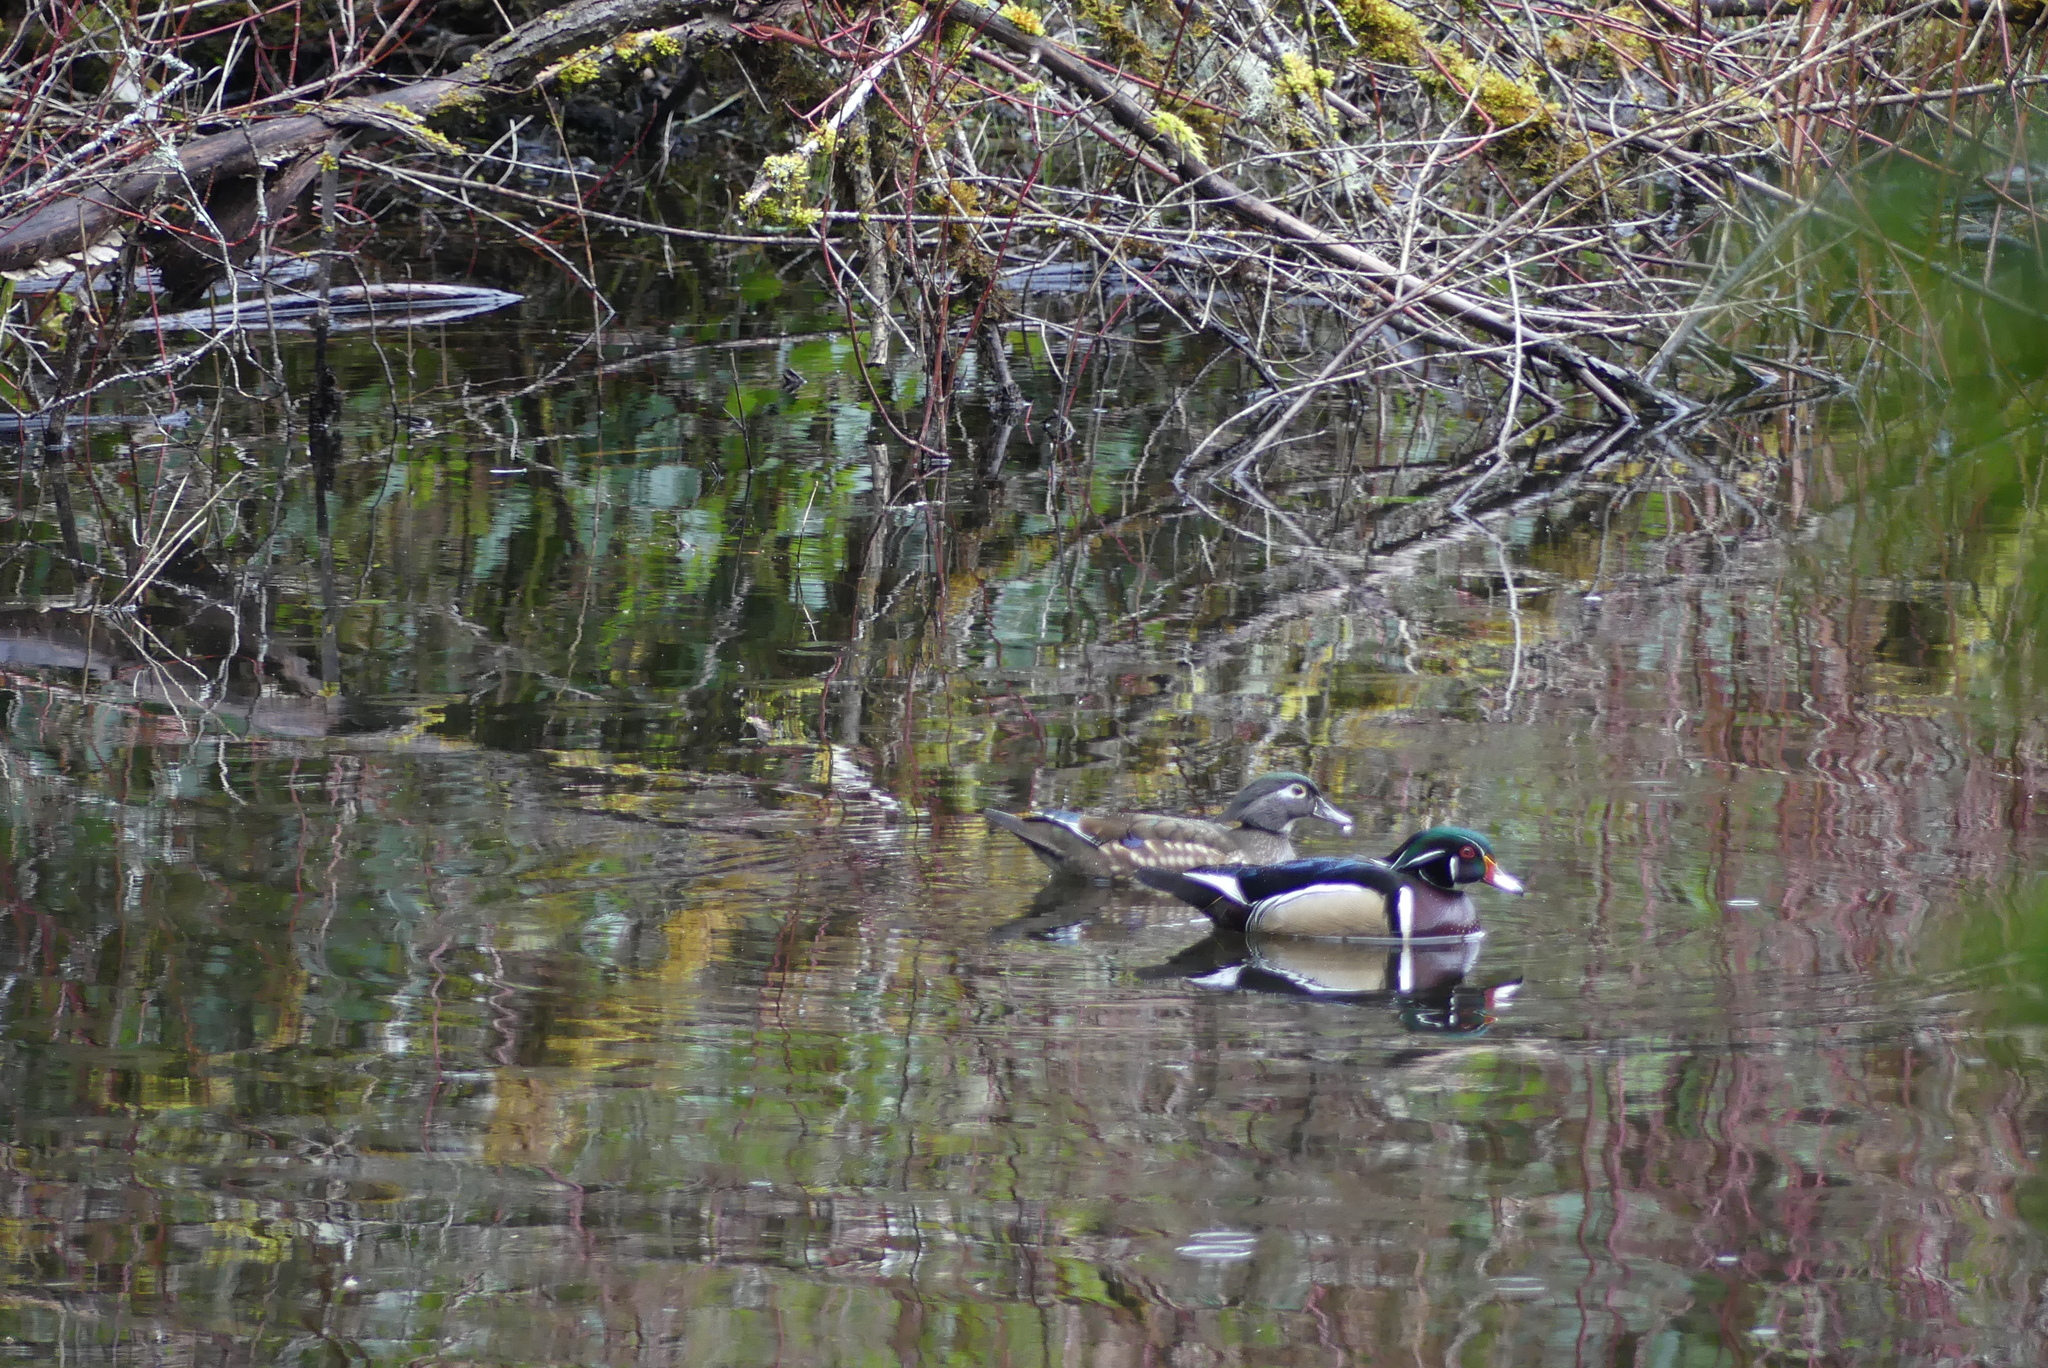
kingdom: Animalia
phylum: Chordata
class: Aves
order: Anseriformes
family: Anatidae
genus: Aix
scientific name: Aix sponsa
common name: Wood duck
